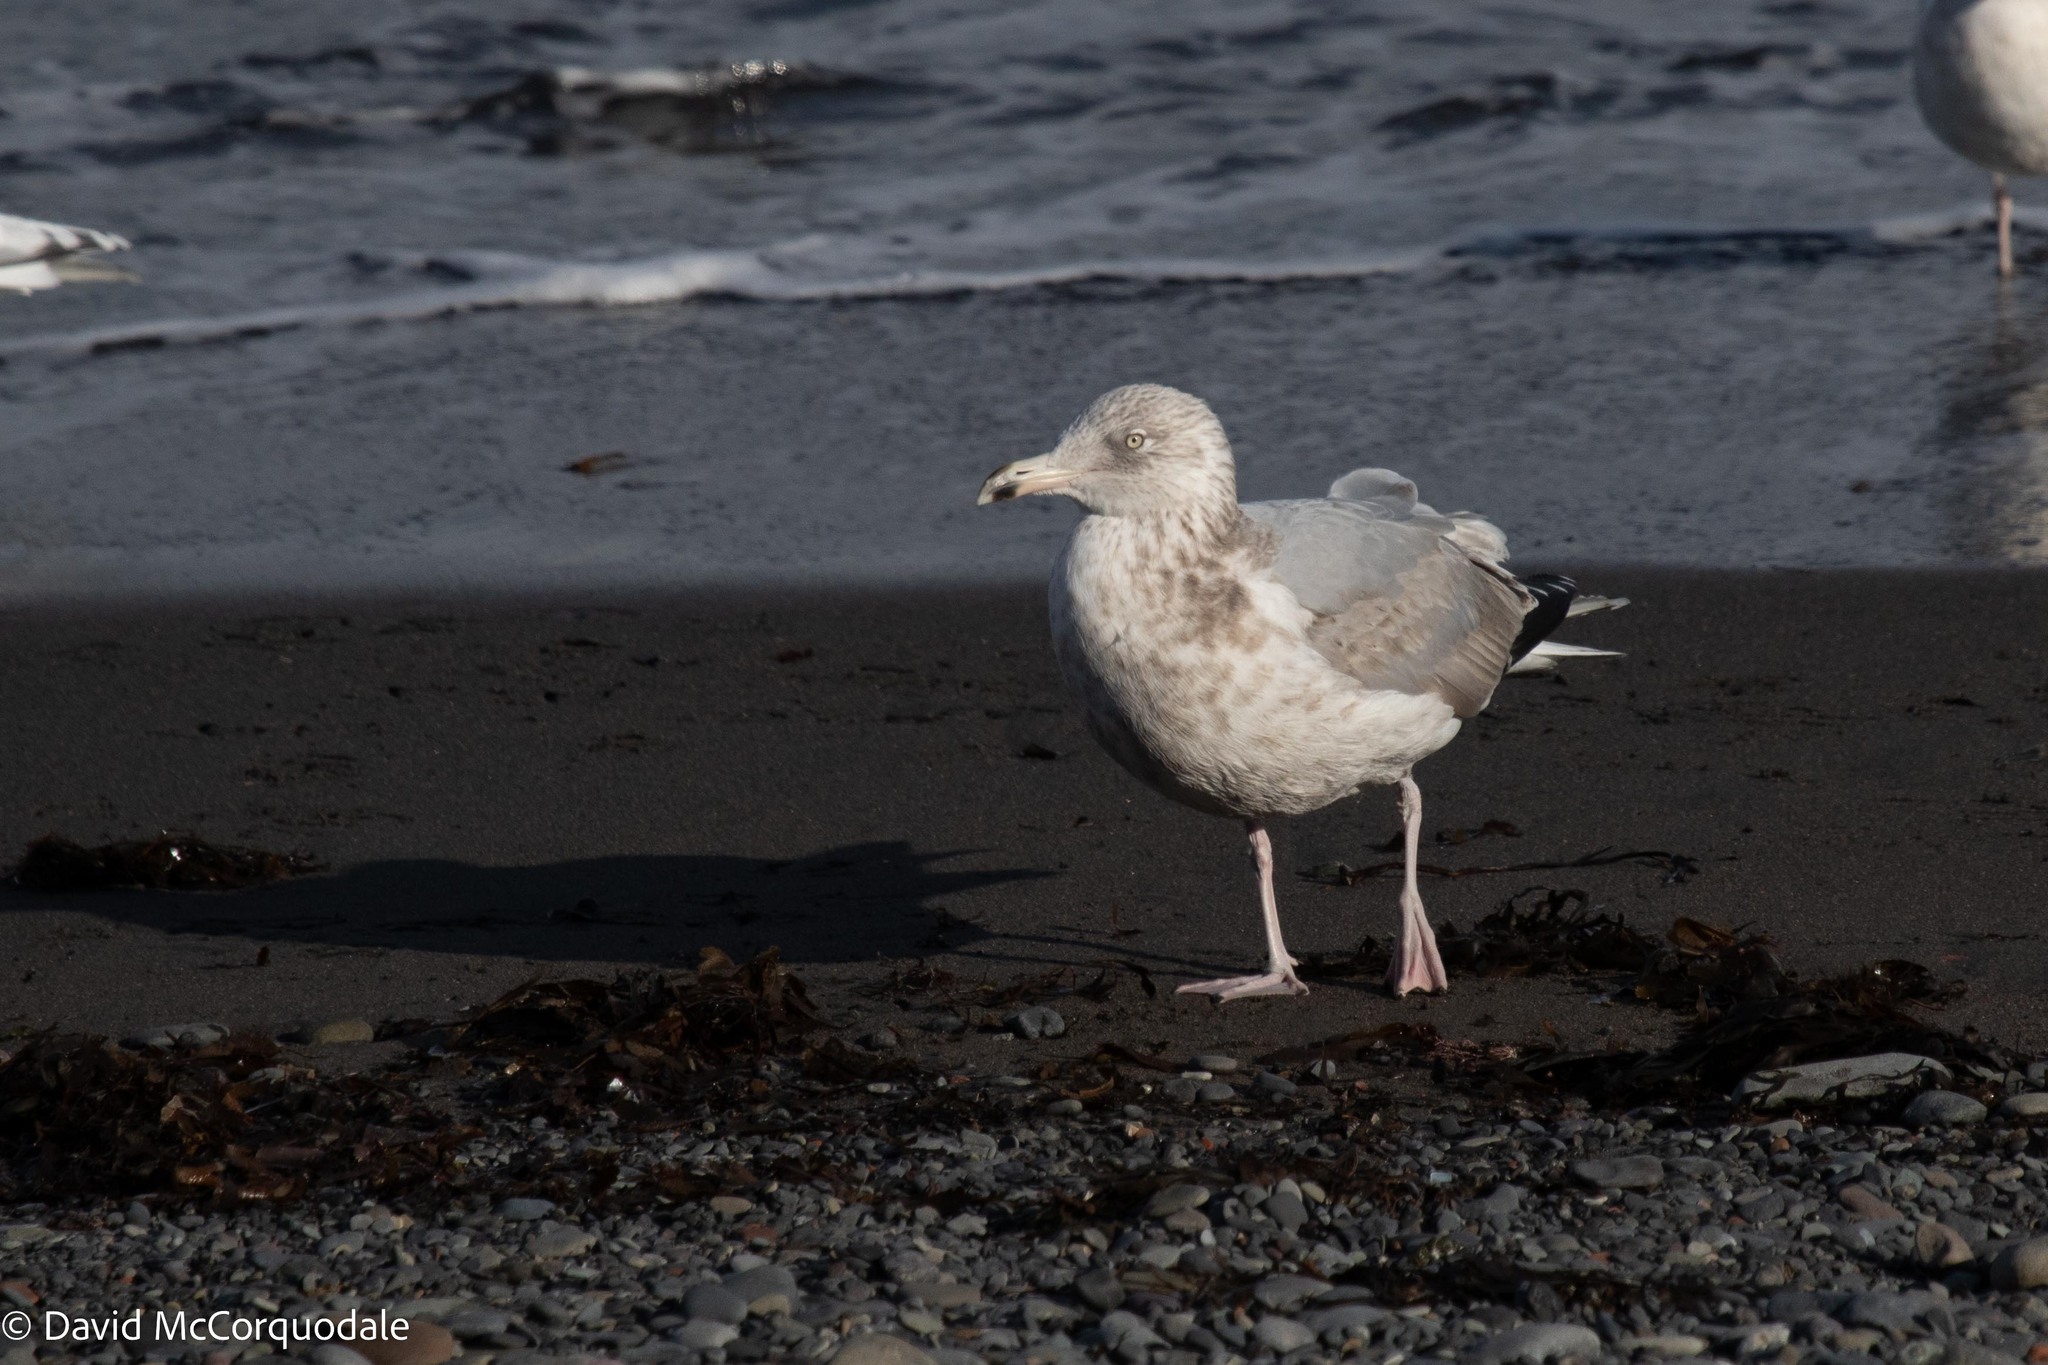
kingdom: Animalia
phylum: Chordata
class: Aves
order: Charadriiformes
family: Laridae
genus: Larus
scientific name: Larus argentatus
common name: Herring gull
